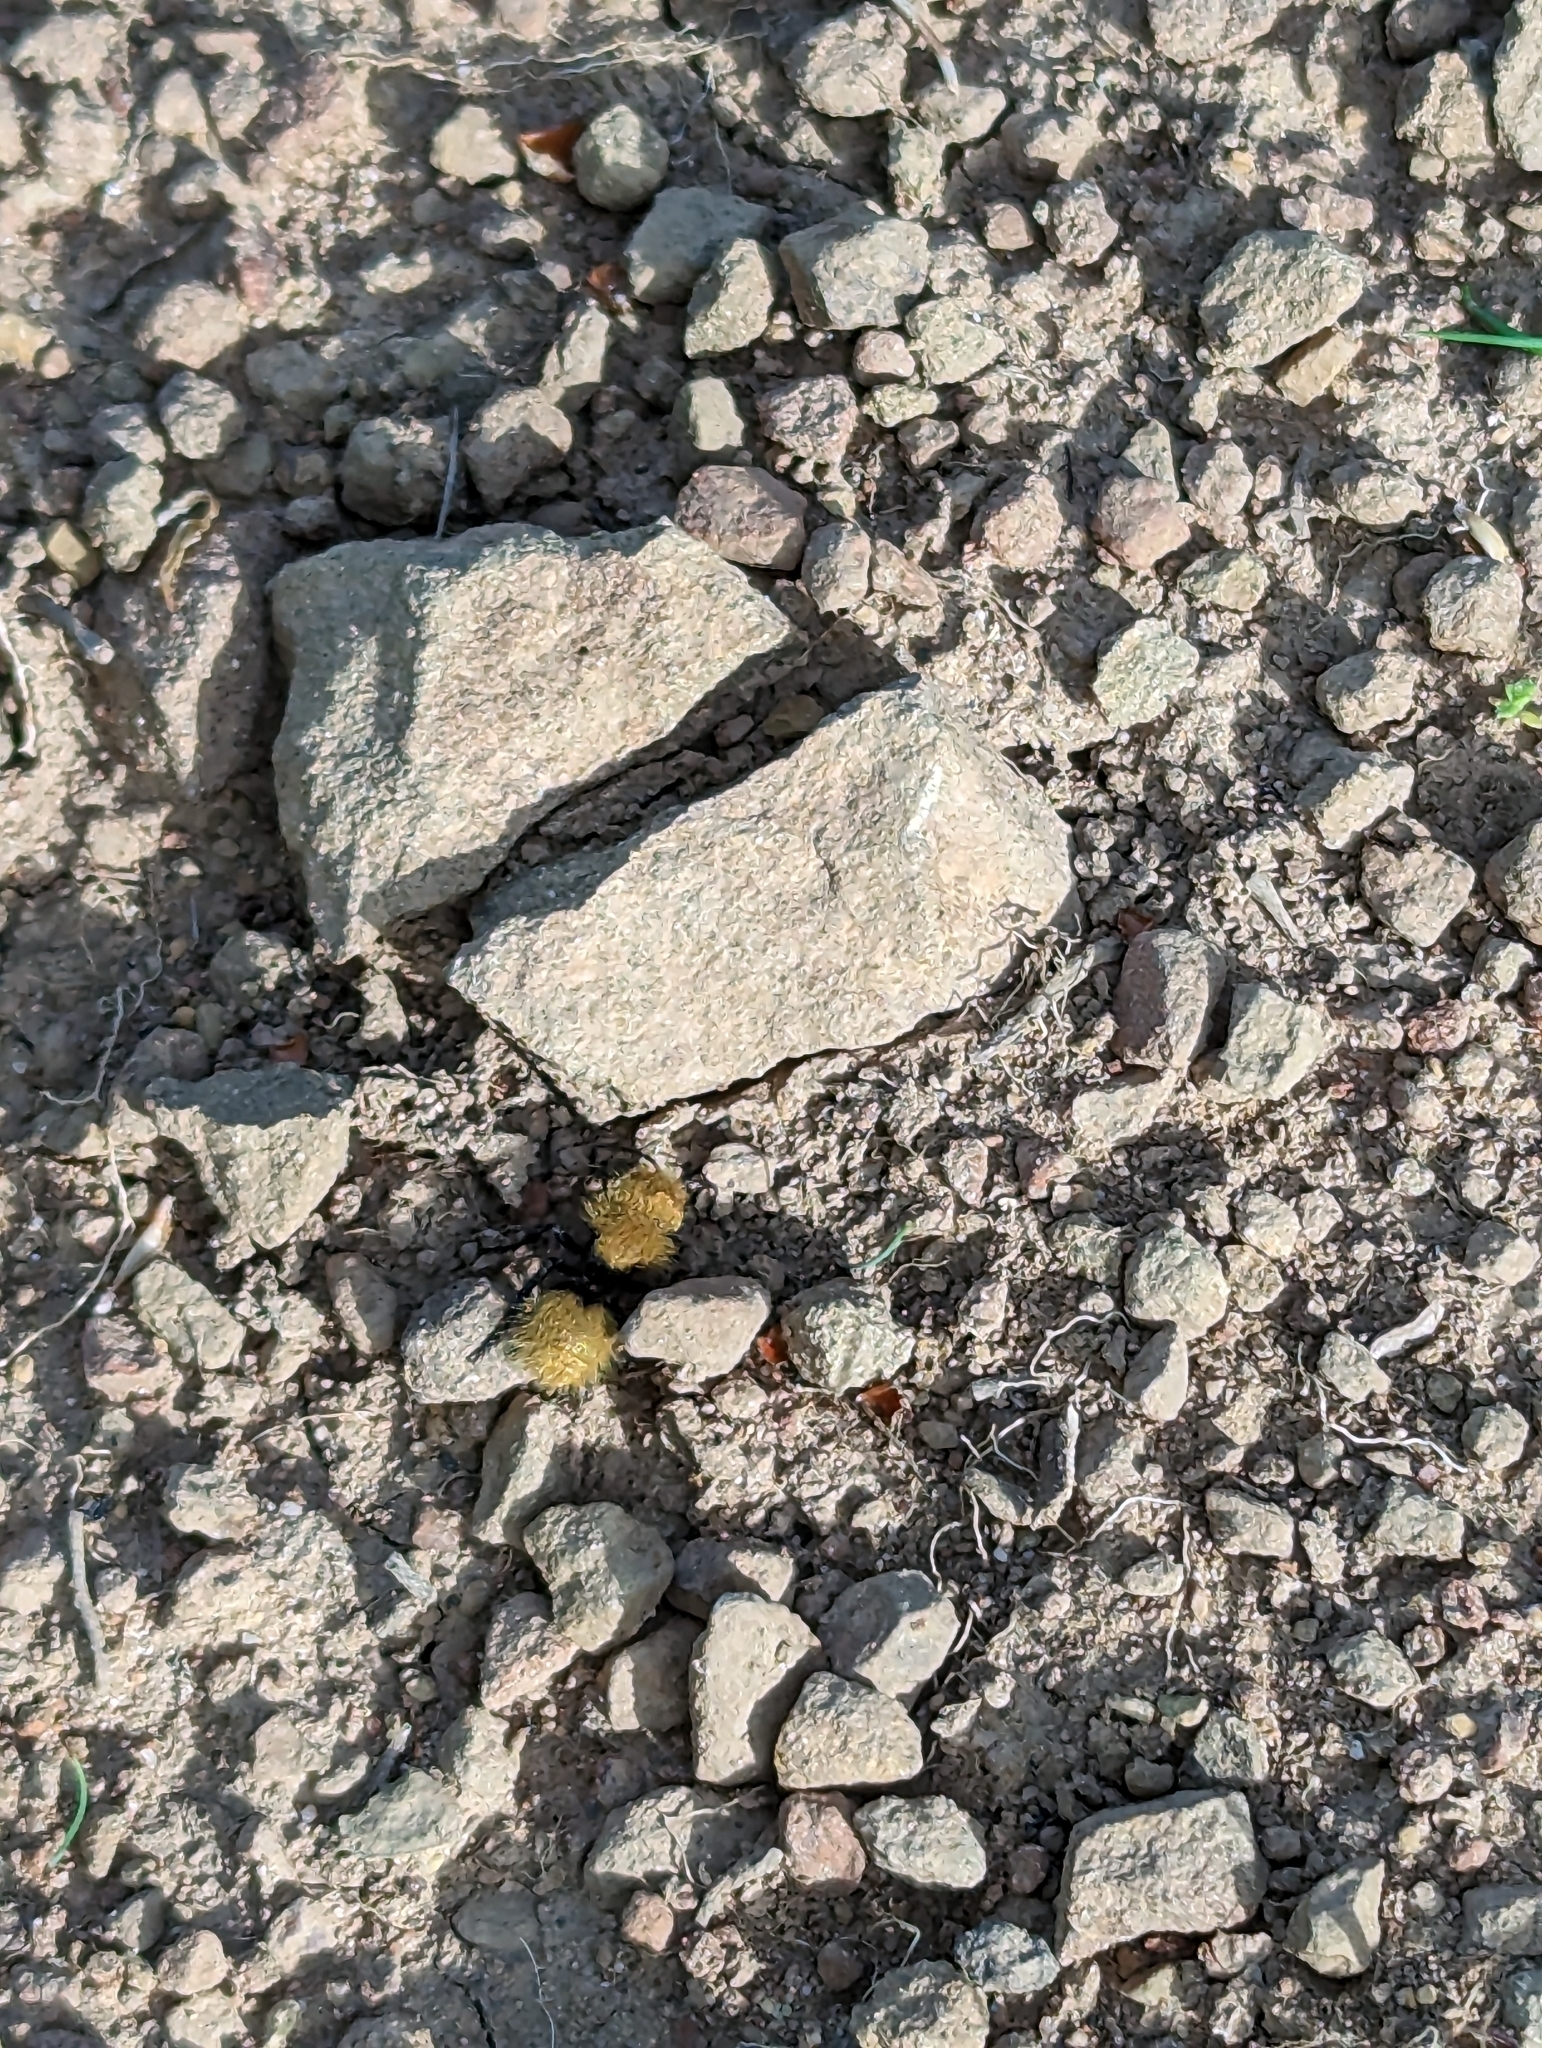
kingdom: Animalia
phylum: Arthropoda
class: Insecta
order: Hymenoptera
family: Mutillidae
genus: Dasymutilla
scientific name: Dasymutilla
